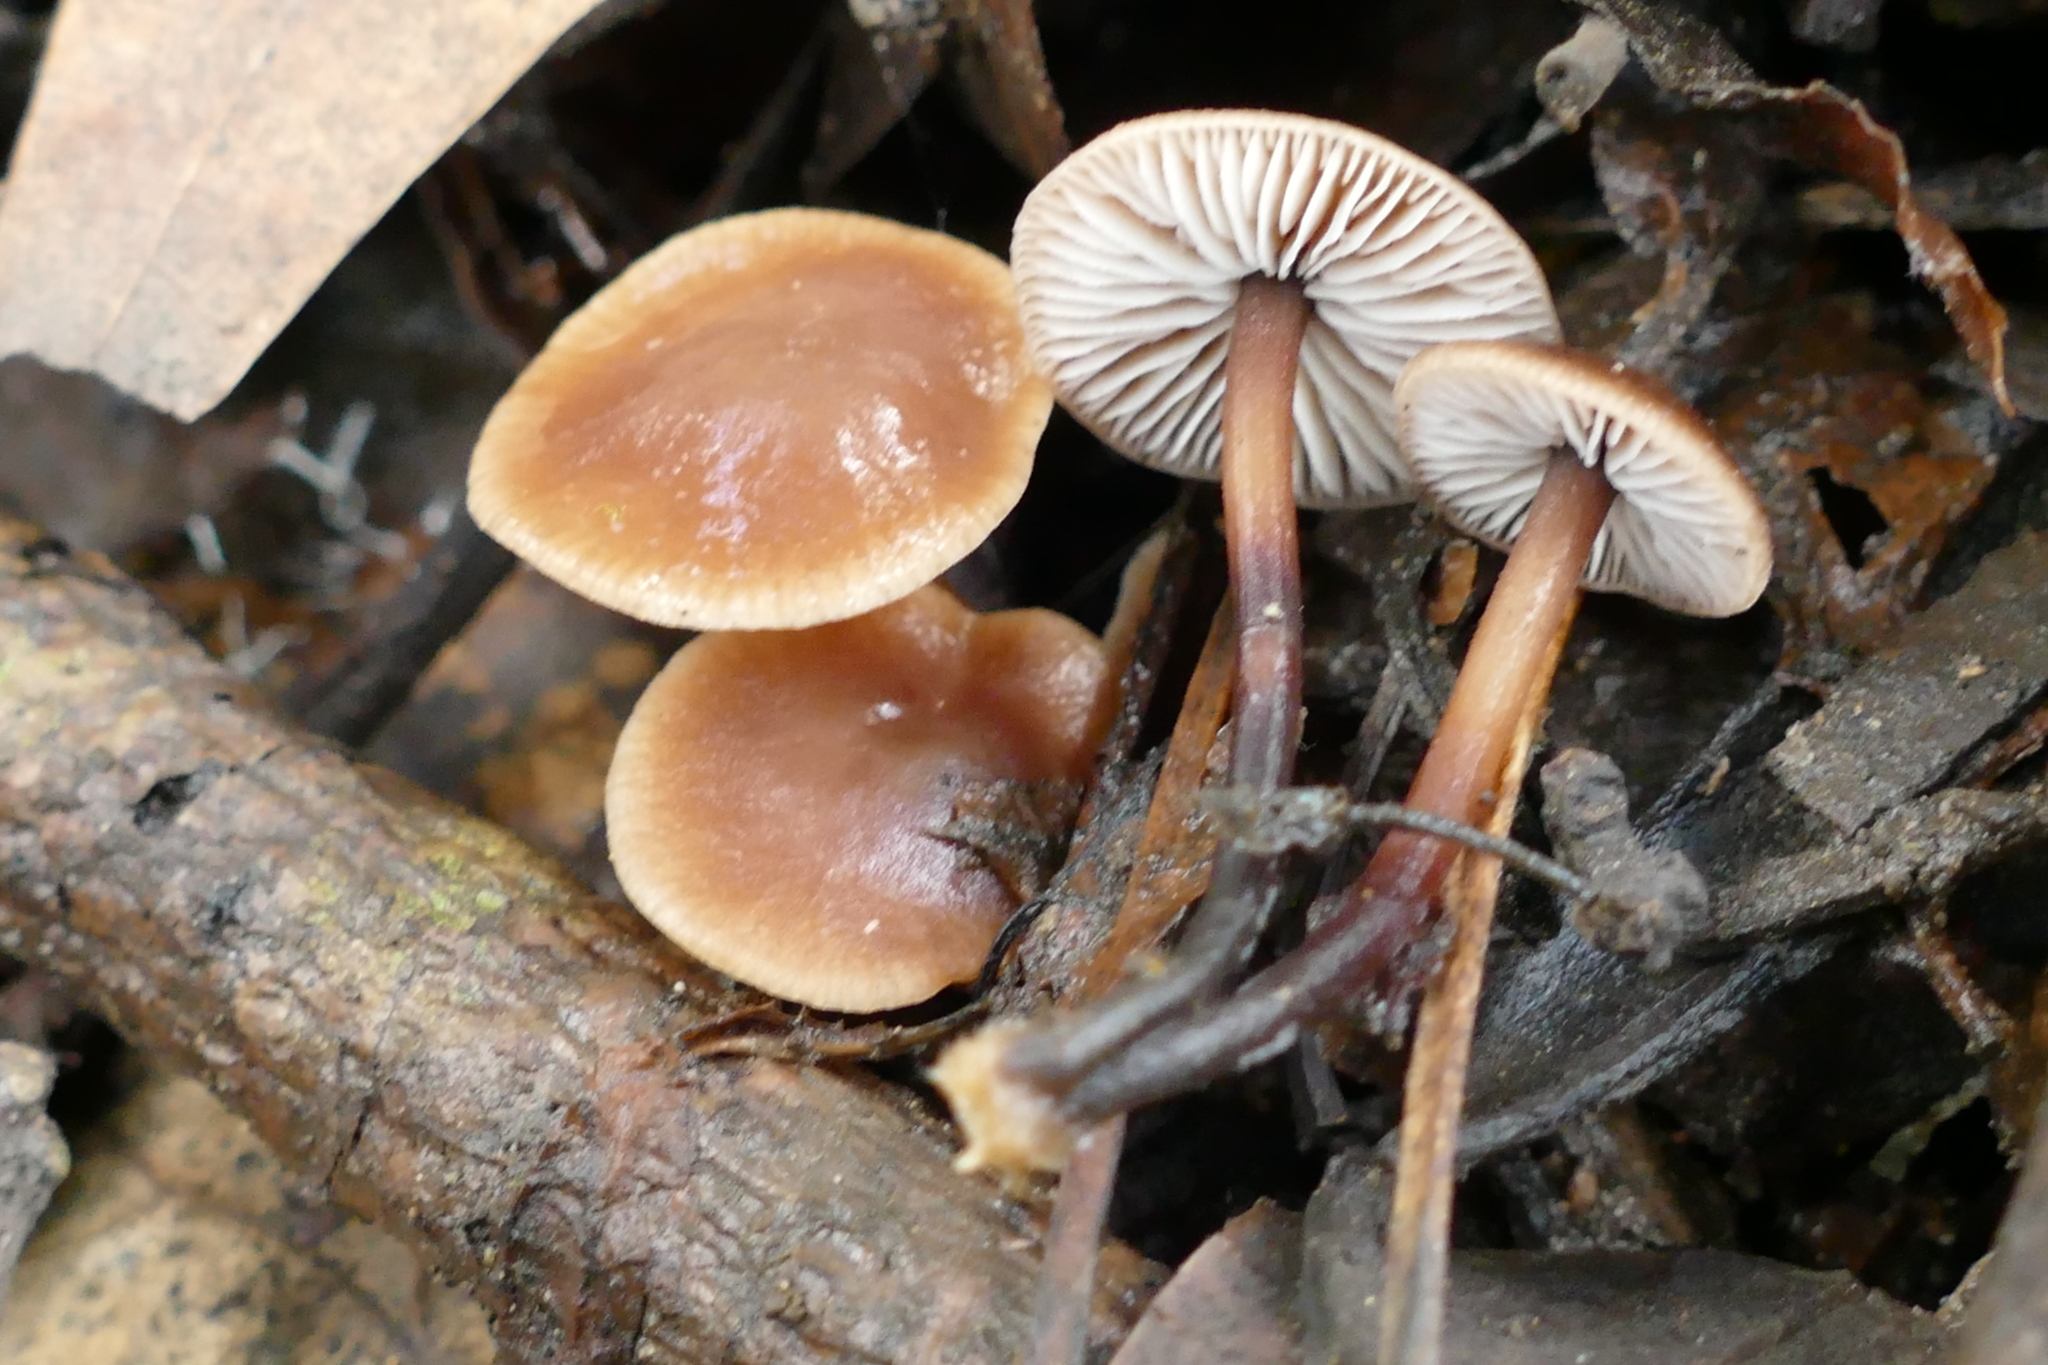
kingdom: Fungi
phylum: Basidiomycota
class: Agaricomycetes
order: Agaricales
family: Omphalotaceae
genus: Gymnopus
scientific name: Gymnopus brassicolens
